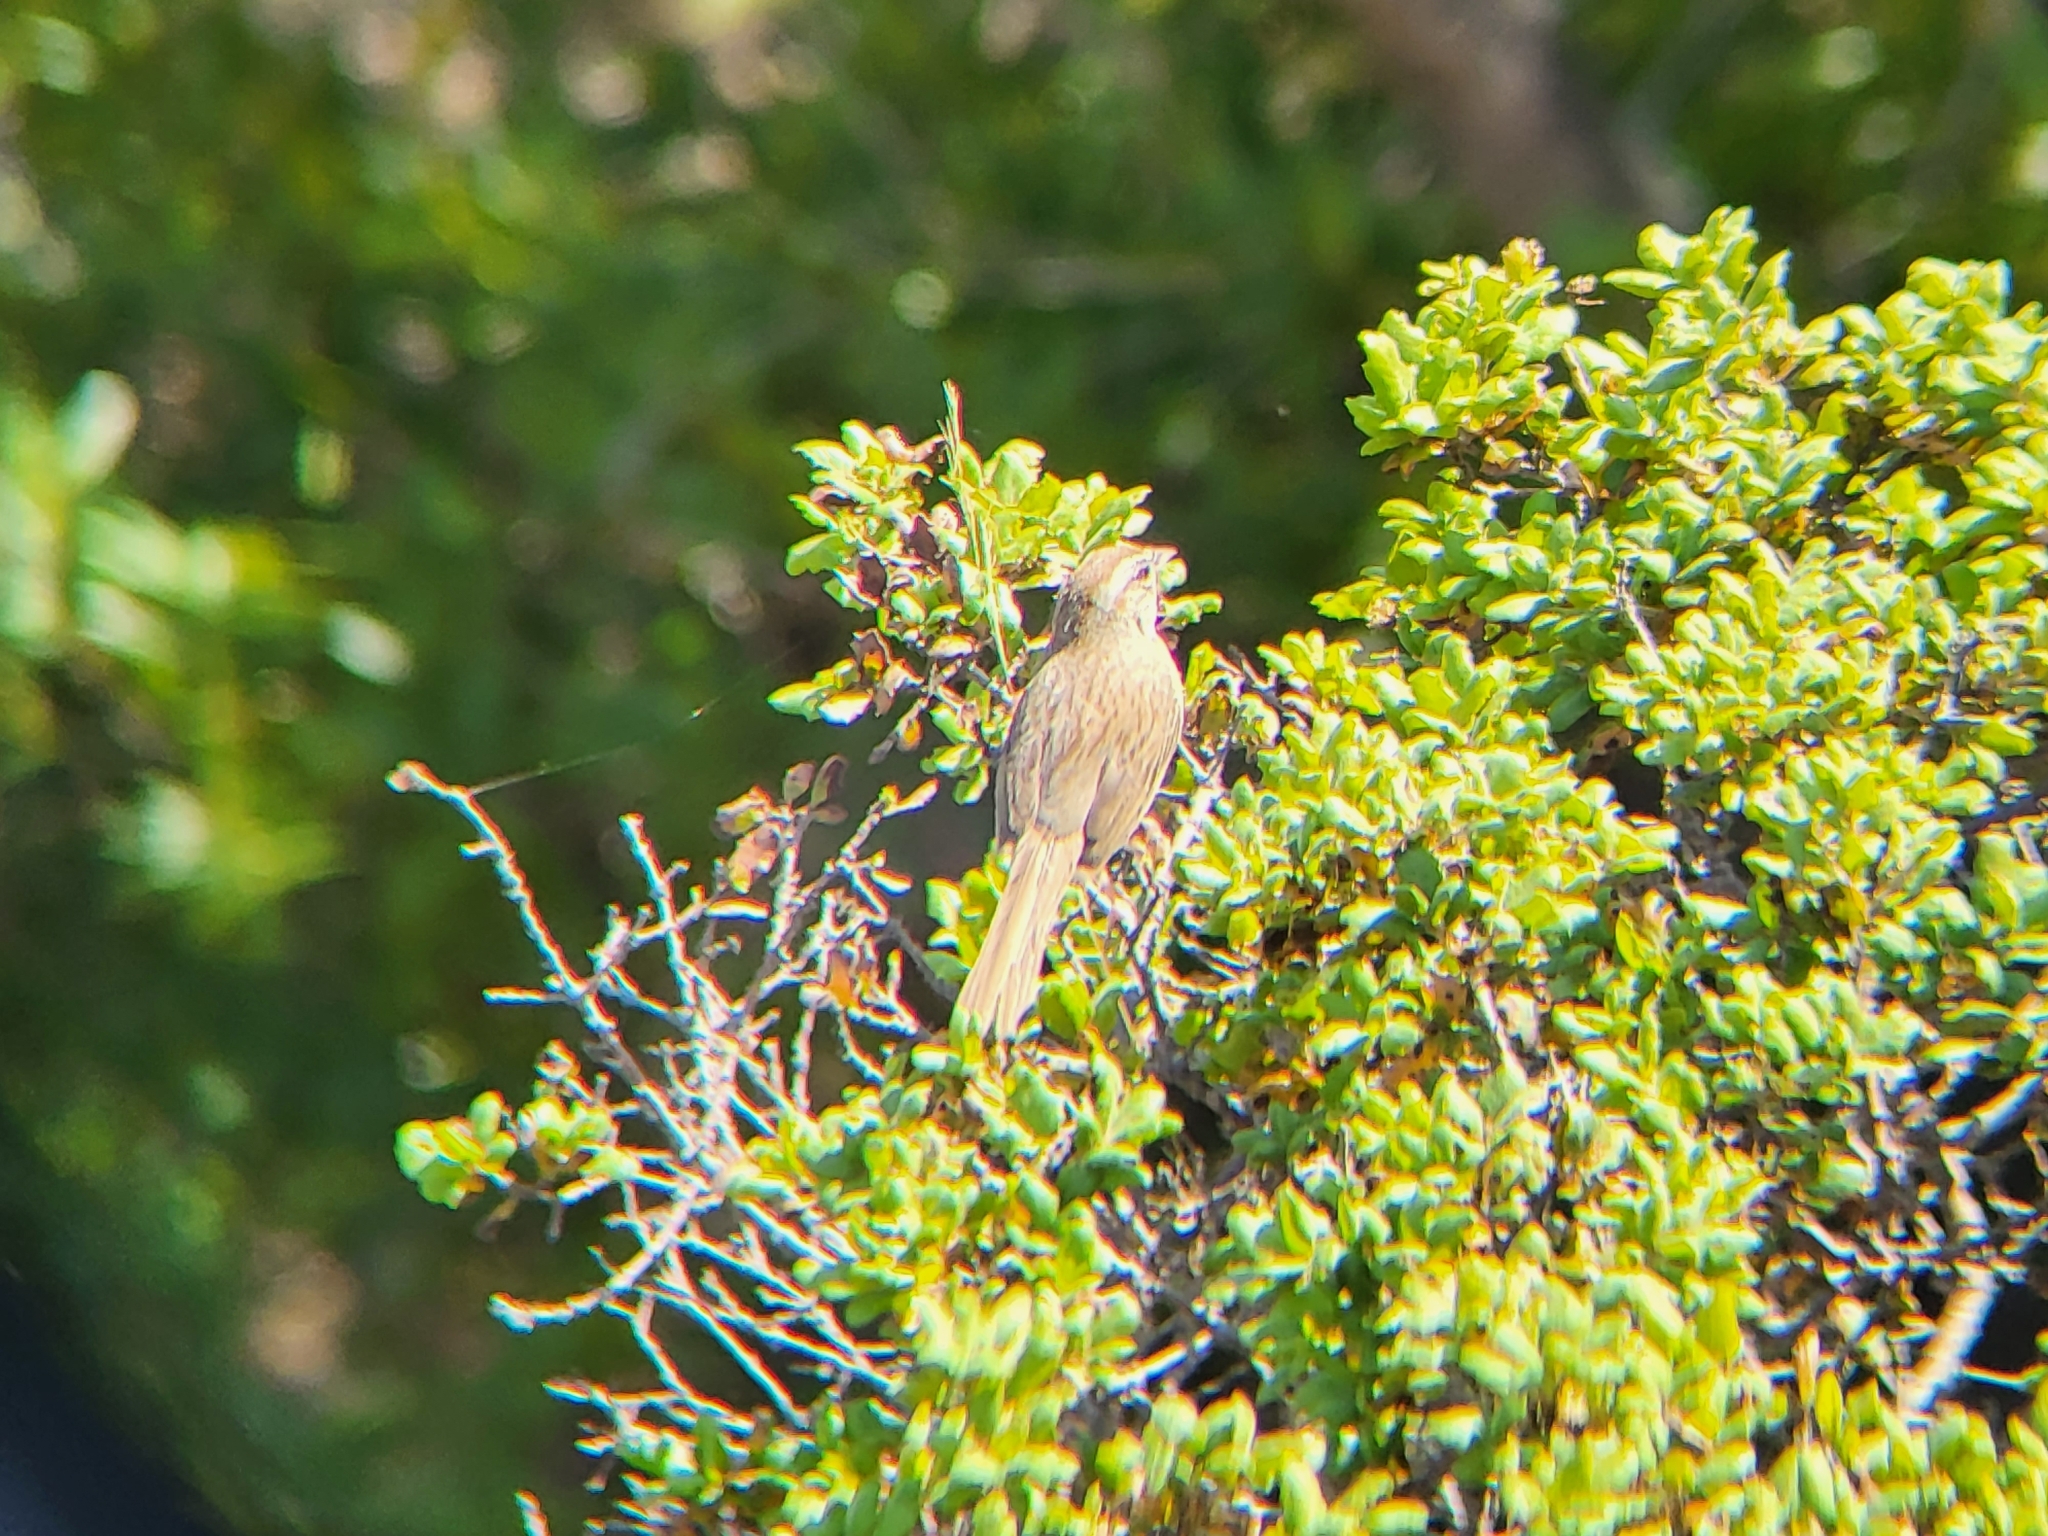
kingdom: Animalia
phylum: Chordata
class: Aves
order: Passeriformes
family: Passerellidae
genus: Aimophila
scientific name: Aimophila ruficeps
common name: Rufous-crowned sparrow
